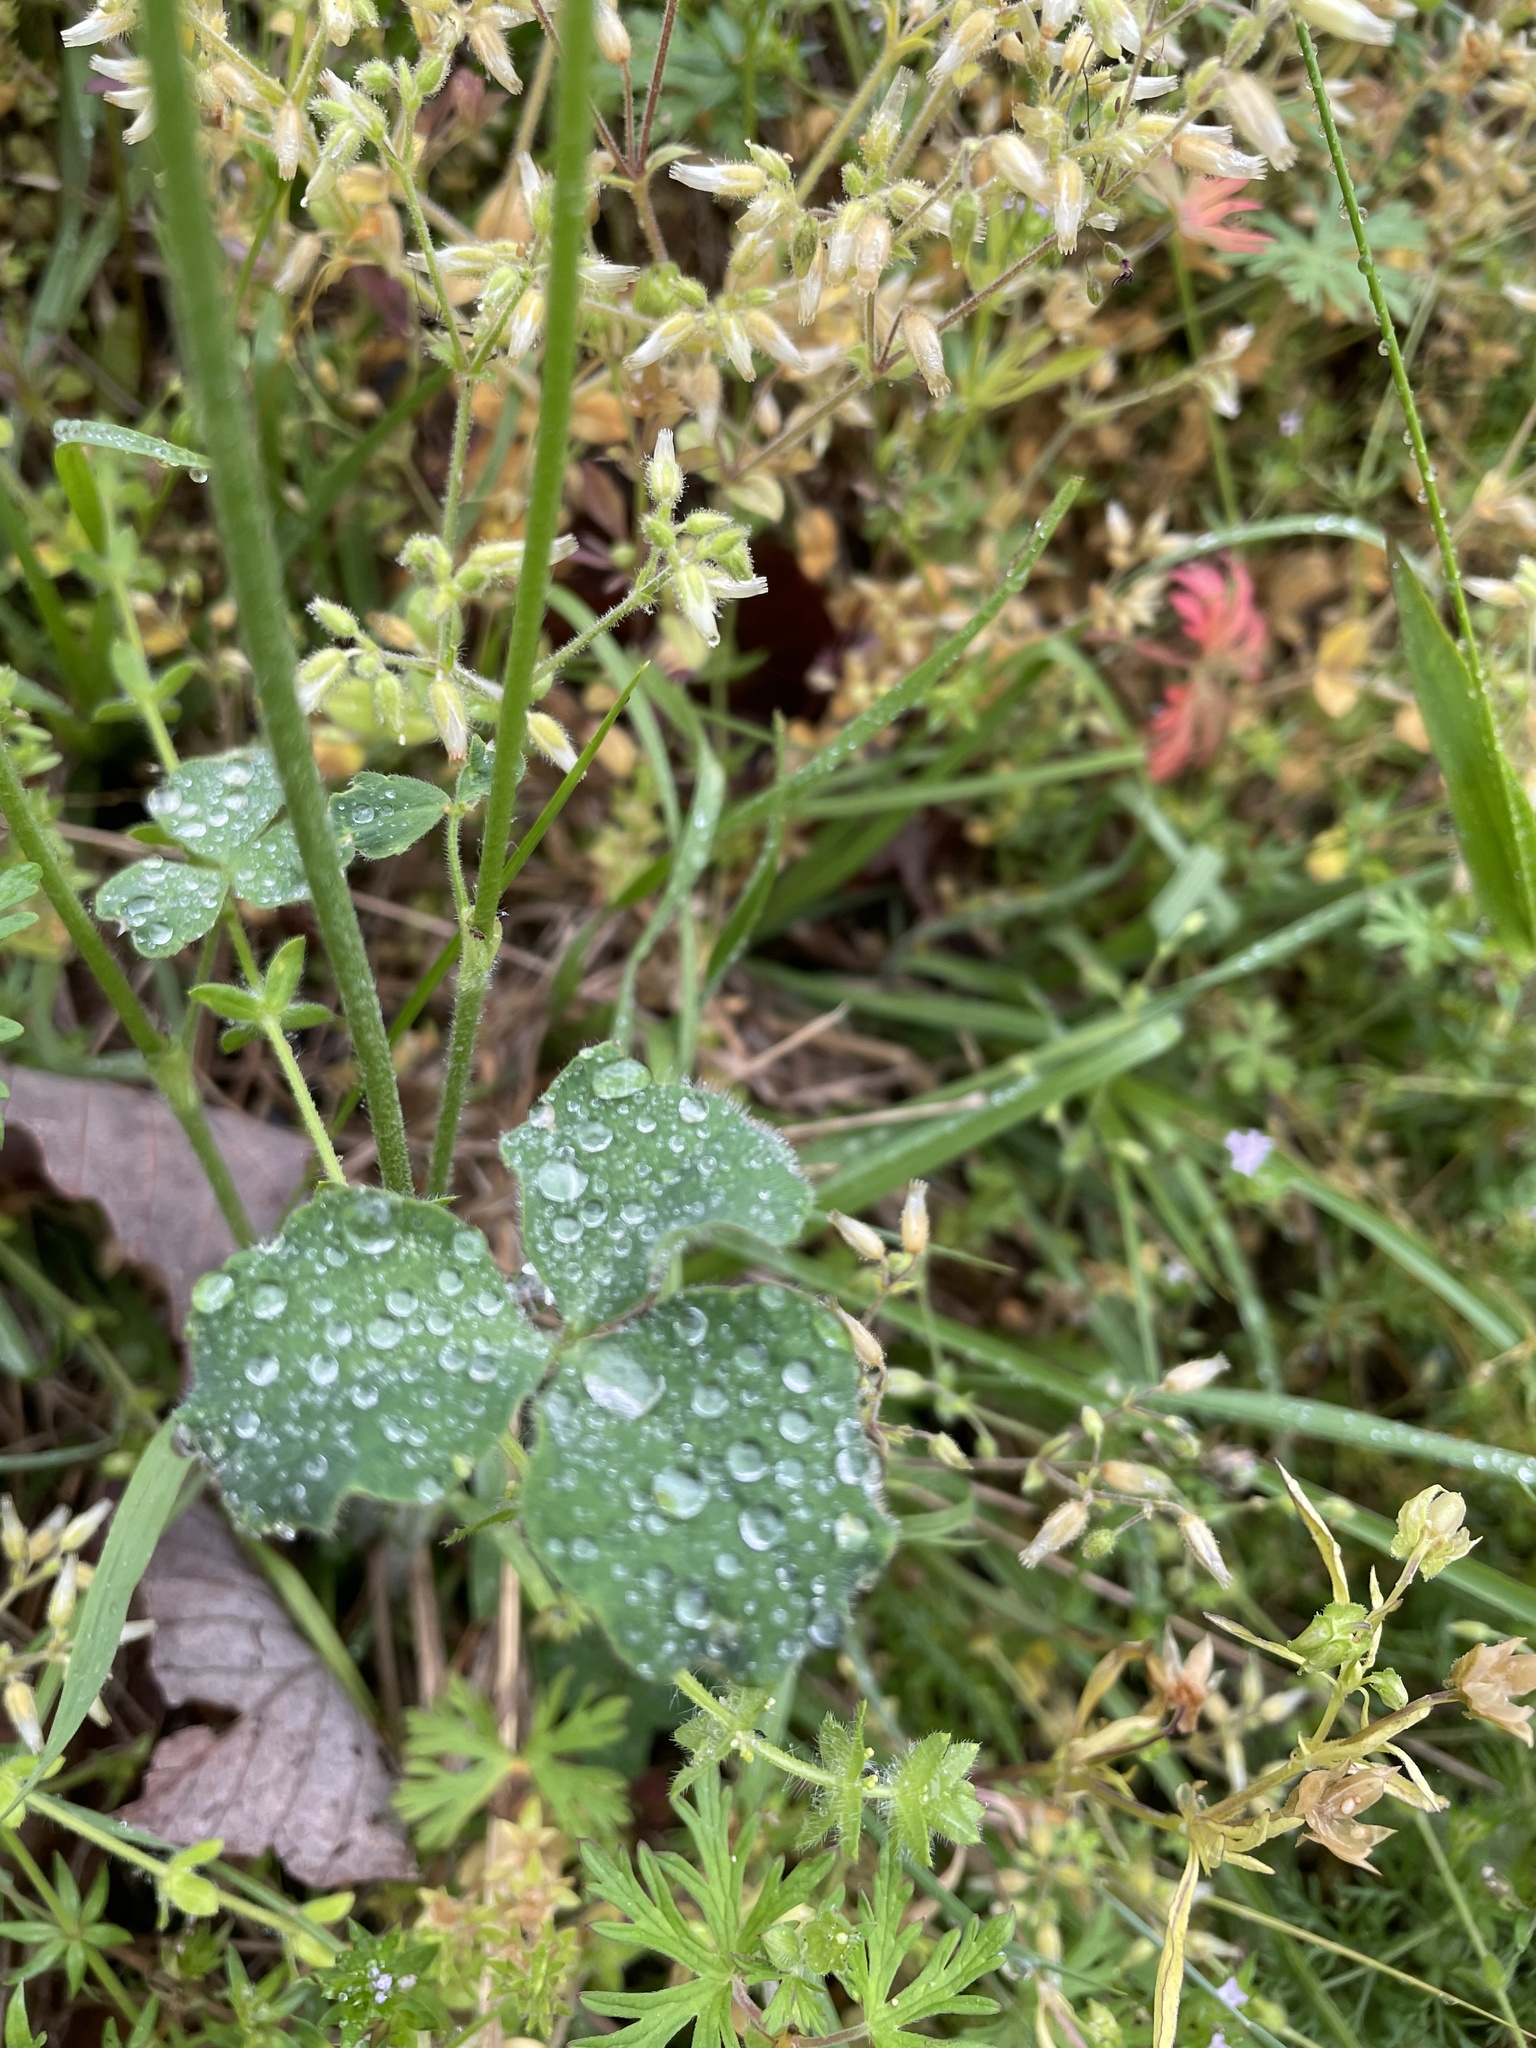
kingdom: Plantae
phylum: Tracheophyta
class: Magnoliopsida
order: Fabales
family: Fabaceae
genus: Trifolium
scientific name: Trifolium incarnatum
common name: Crimson clover
